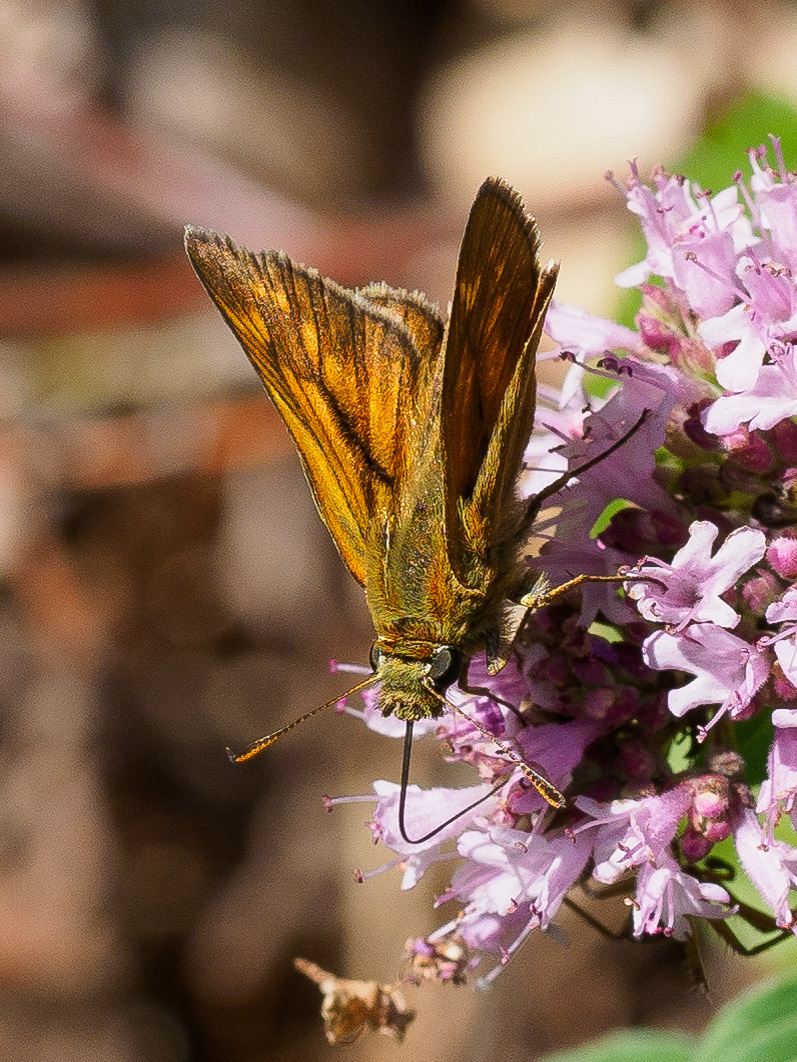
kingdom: Animalia
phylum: Arthropoda
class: Insecta
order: Lepidoptera
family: Hesperiidae
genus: Ochlodes
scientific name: Ochlodes venata
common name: Large skipper
